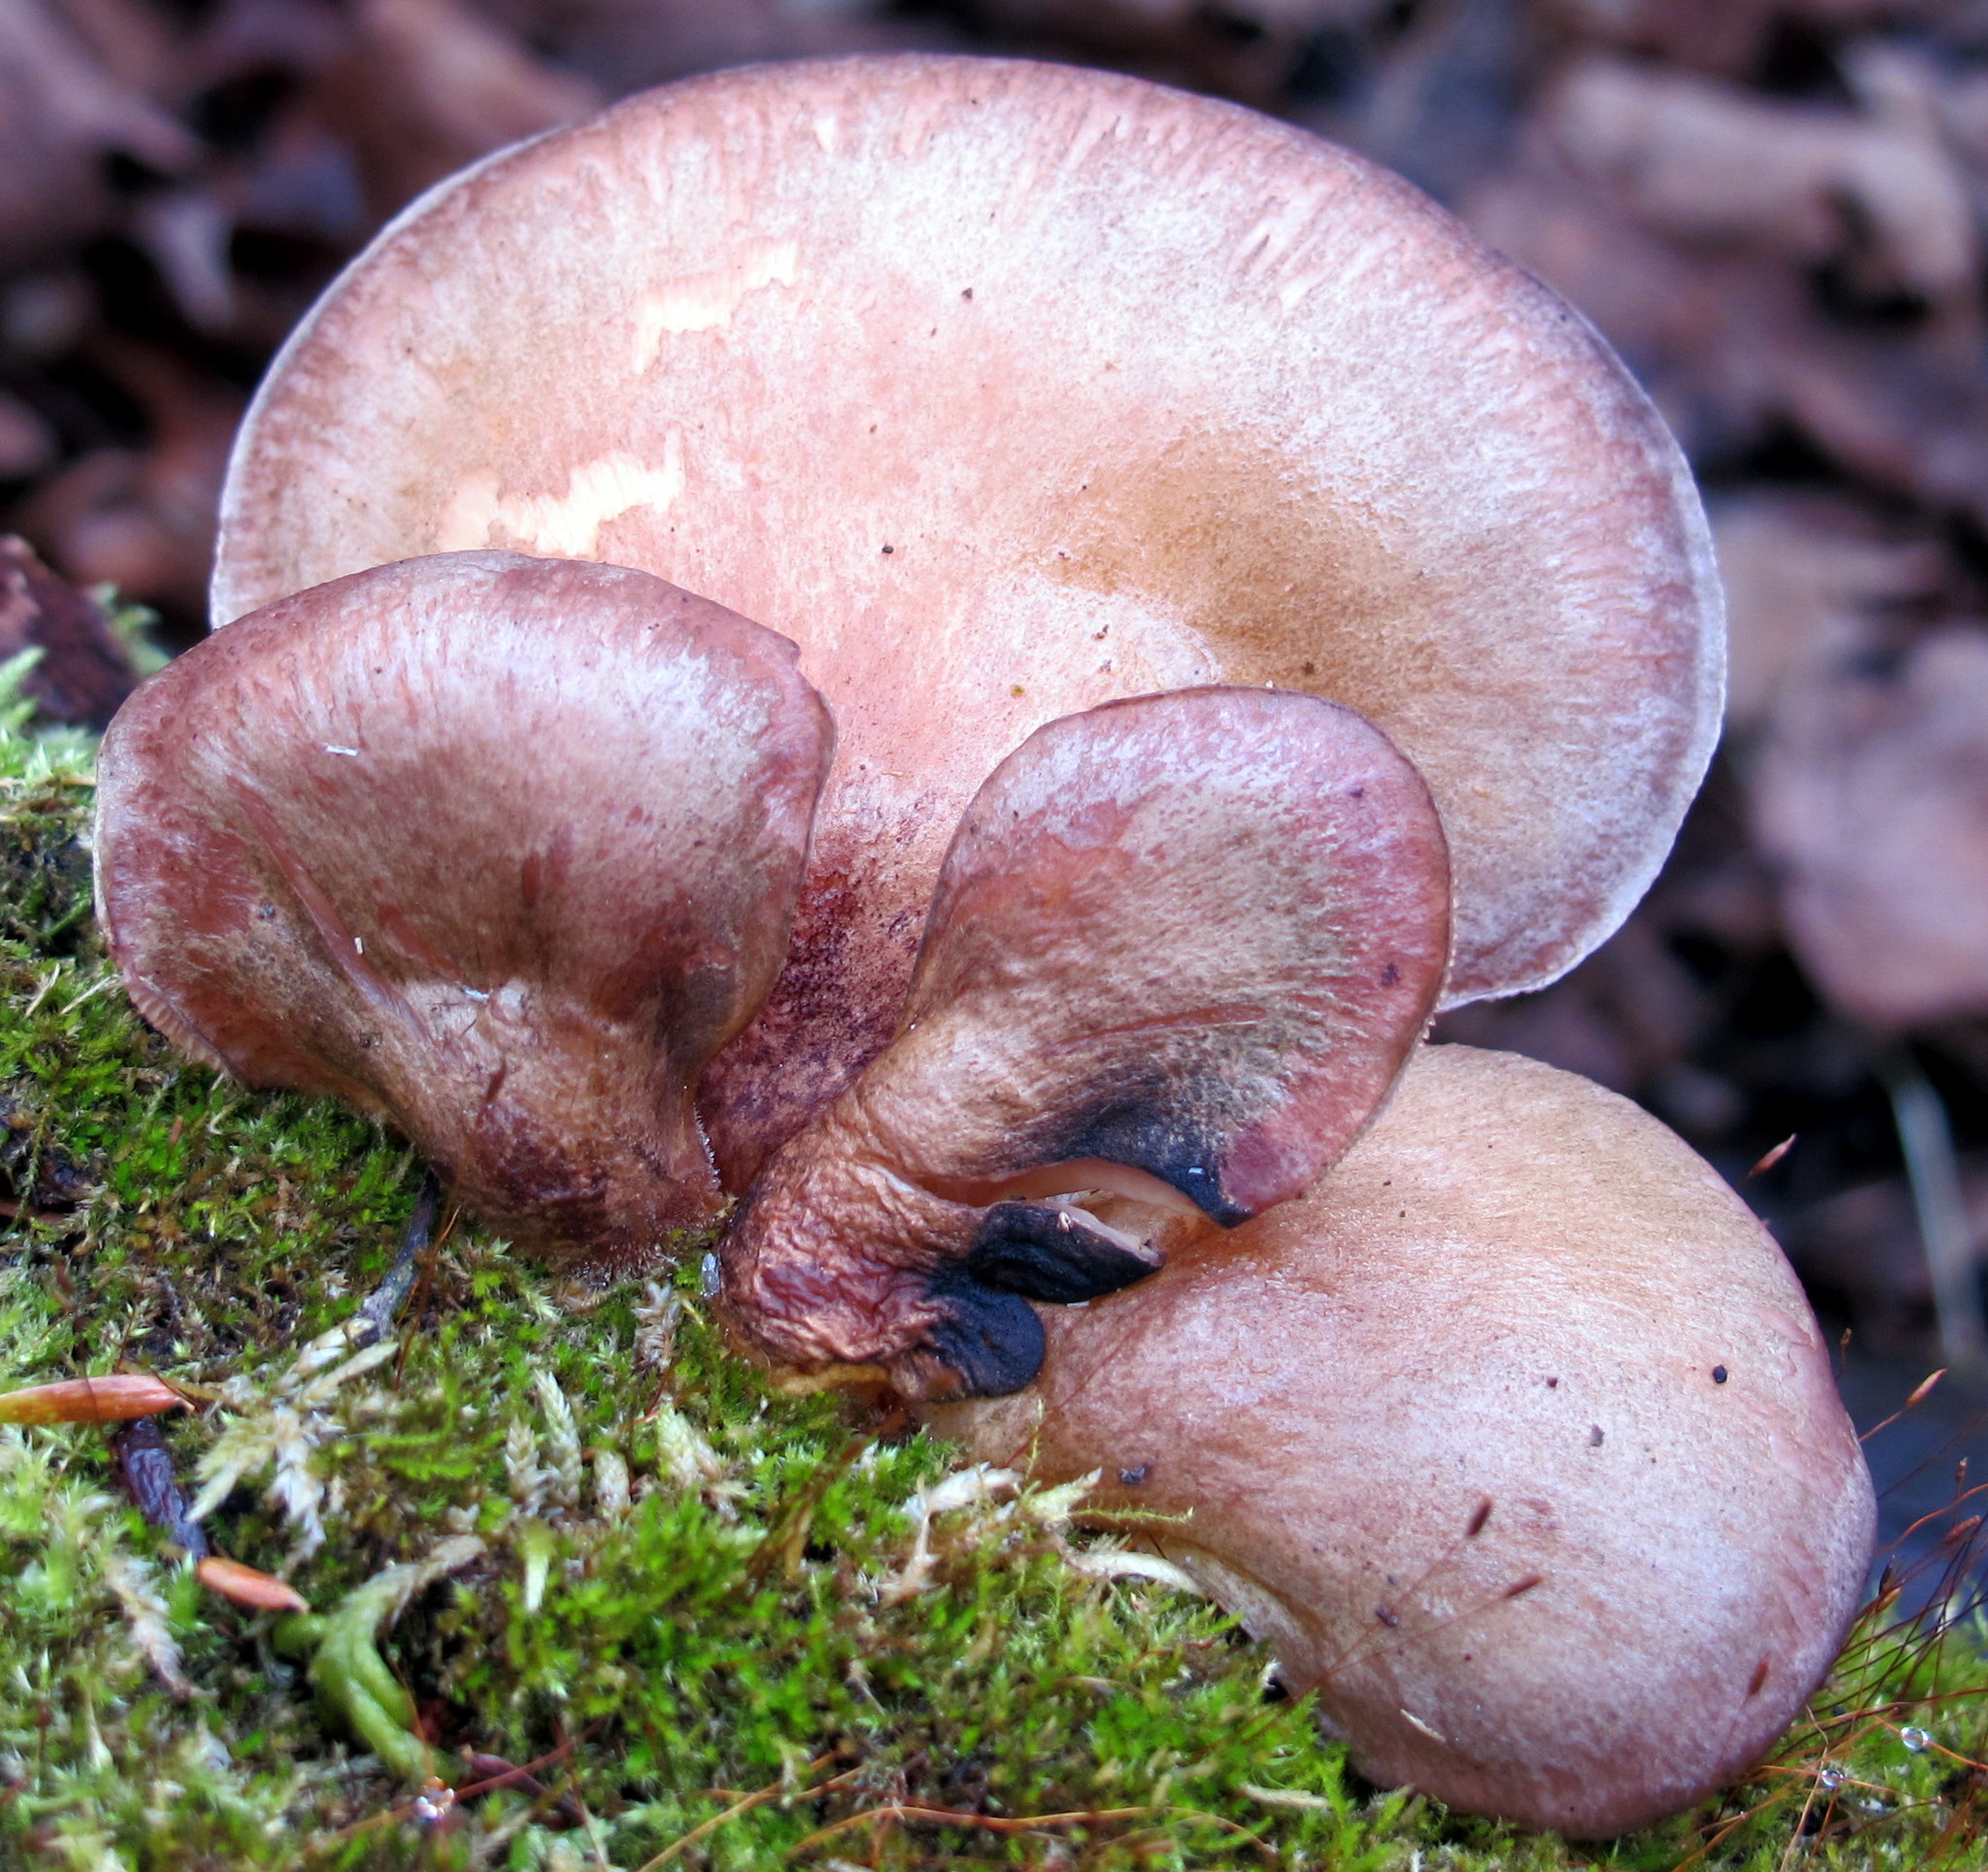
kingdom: Fungi
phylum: Basidiomycota
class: Agaricomycetes
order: Agaricales
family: Sarcomyxaceae
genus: Sarcomyxa
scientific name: Sarcomyxa serotina
